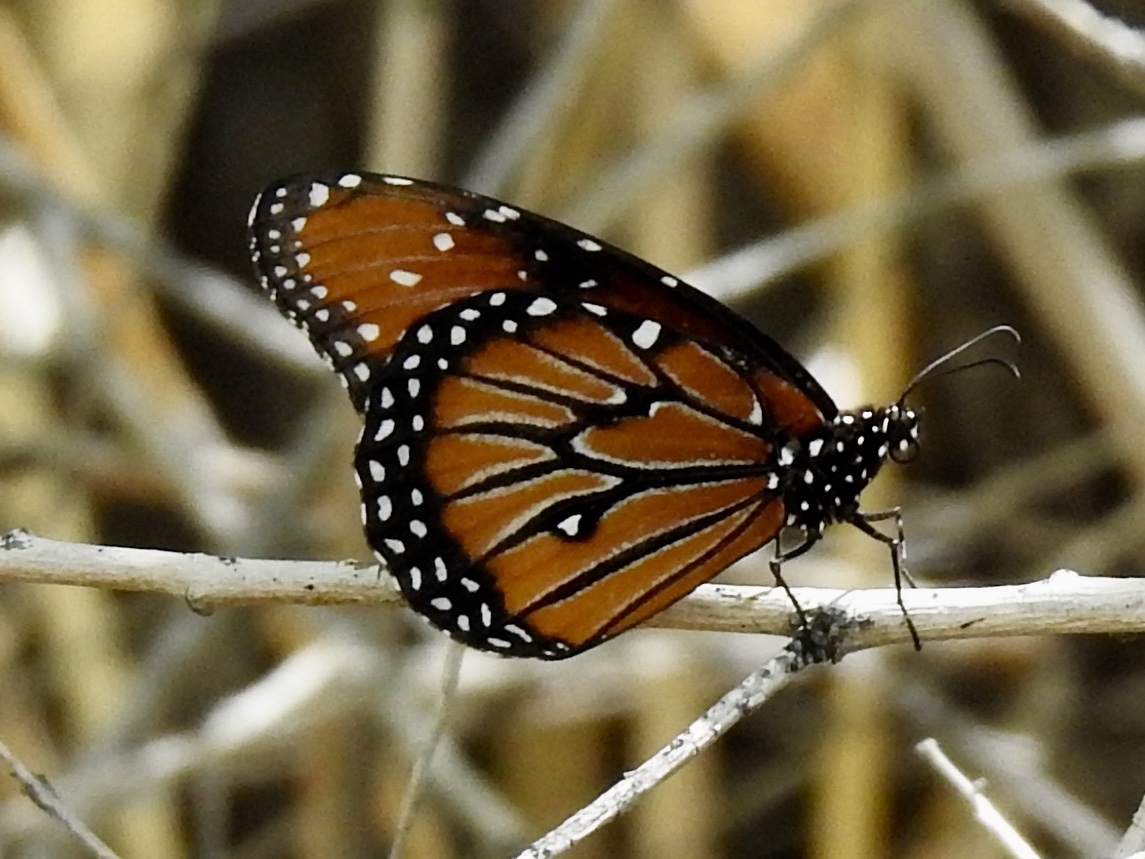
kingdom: Animalia
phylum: Arthropoda
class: Insecta
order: Lepidoptera
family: Nymphalidae
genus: Danaus
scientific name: Danaus gilippus
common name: Queen
